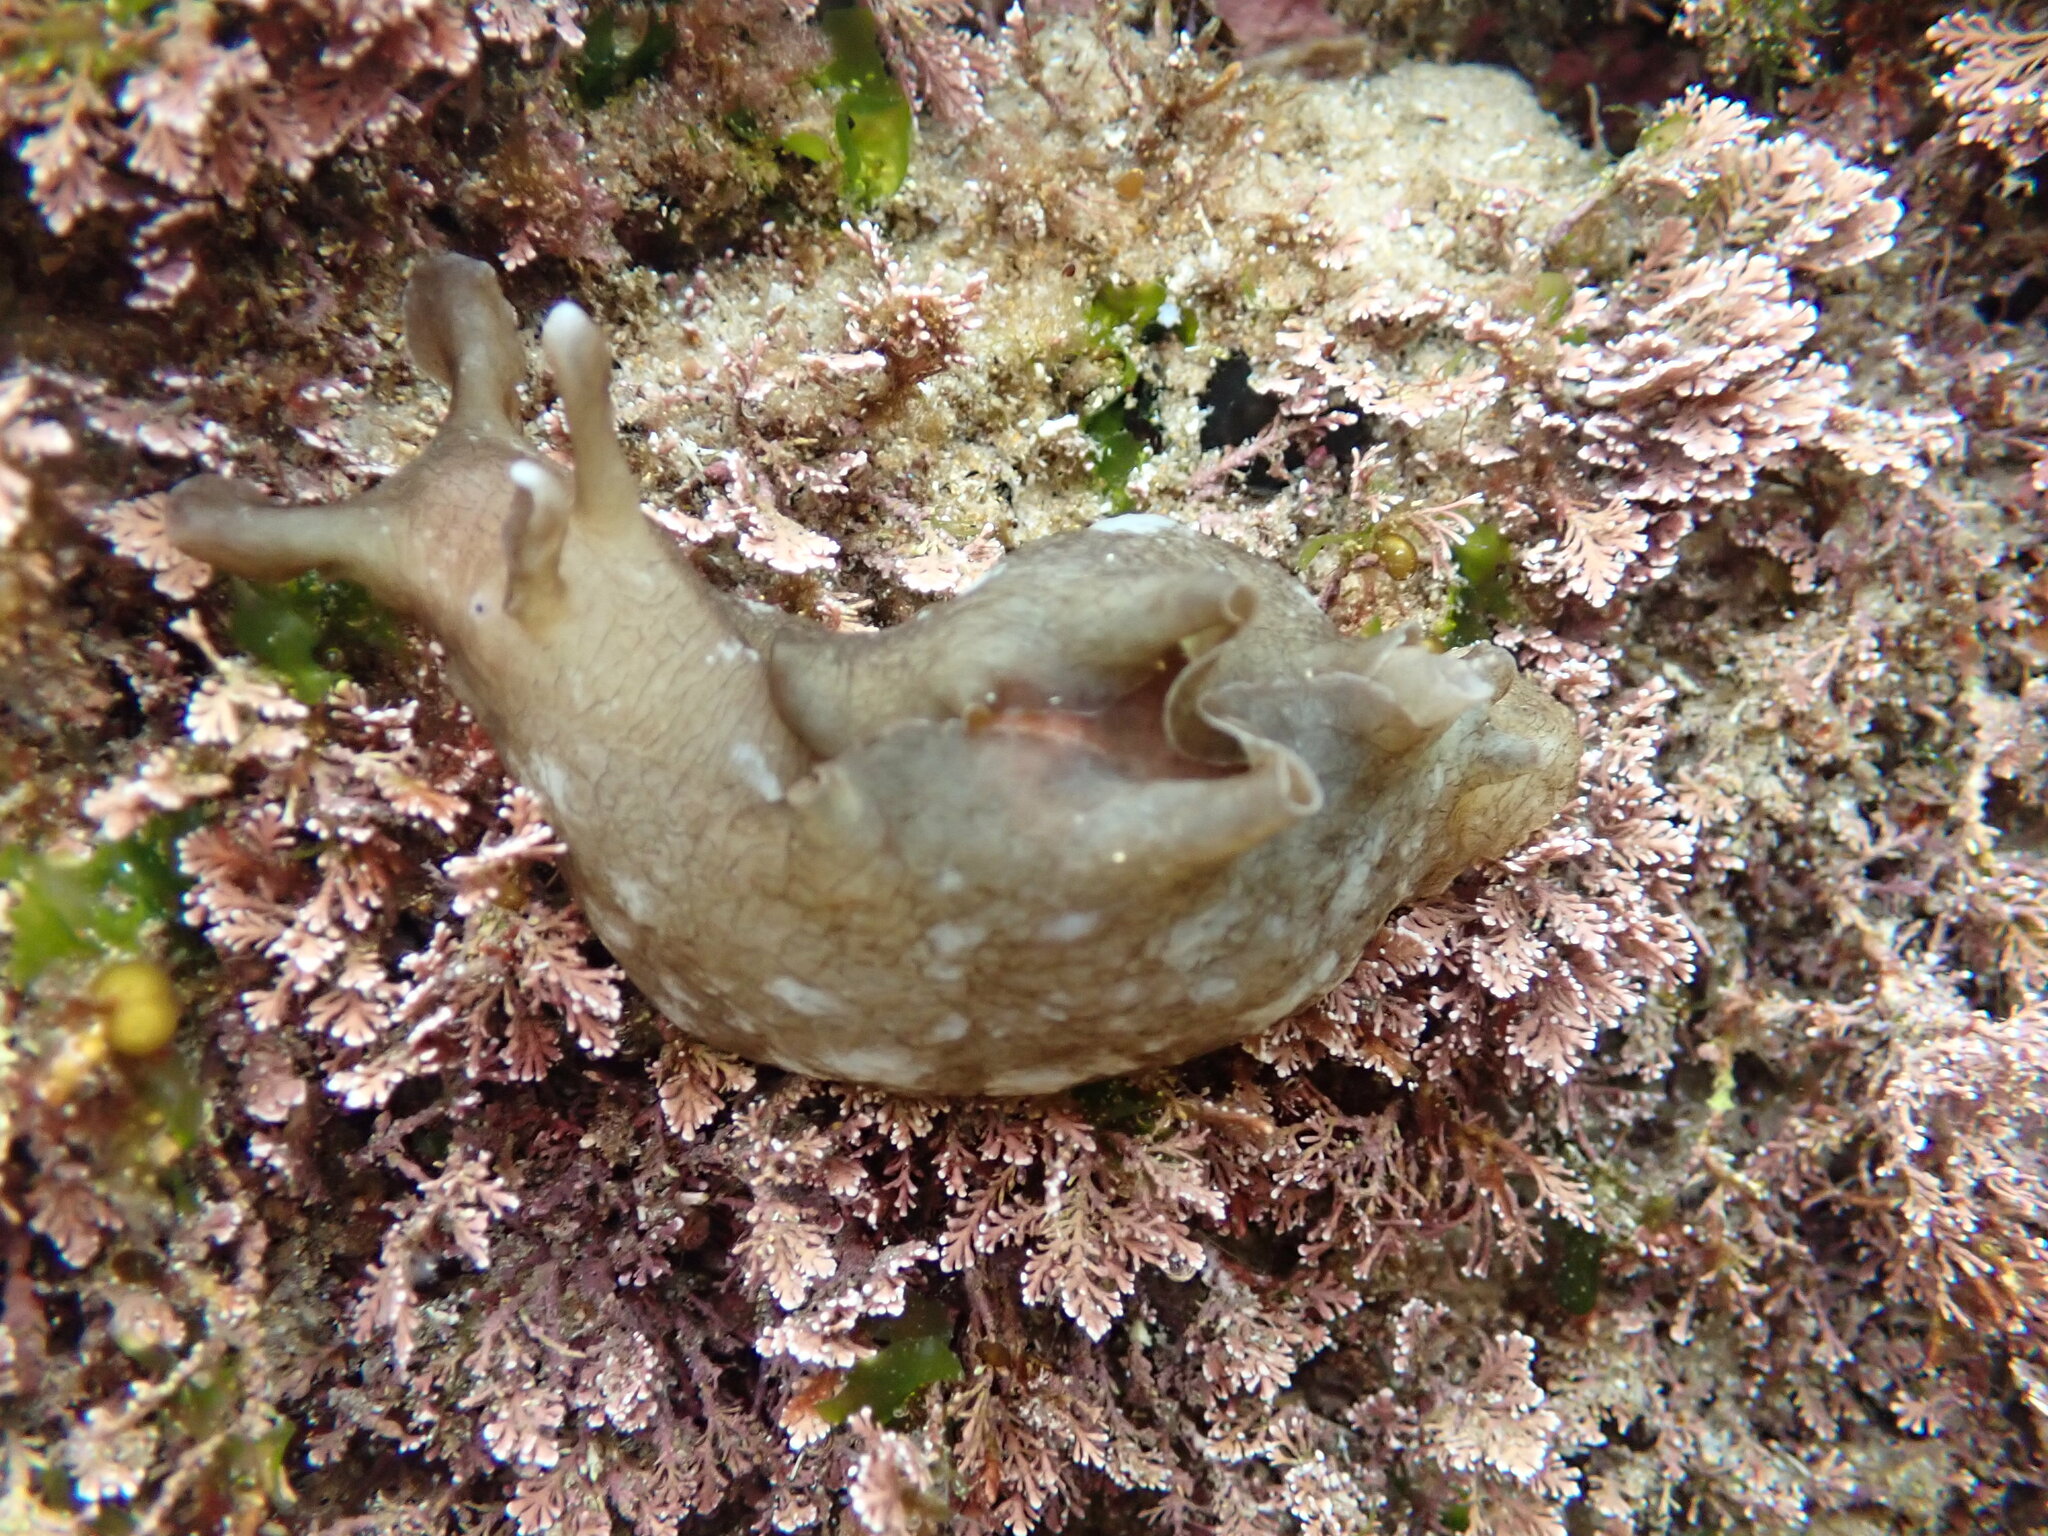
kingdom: Animalia
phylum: Mollusca
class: Gastropoda
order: Aplysiida
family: Aplysiidae
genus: Aplysia
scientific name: Aplysia sydneyensis
